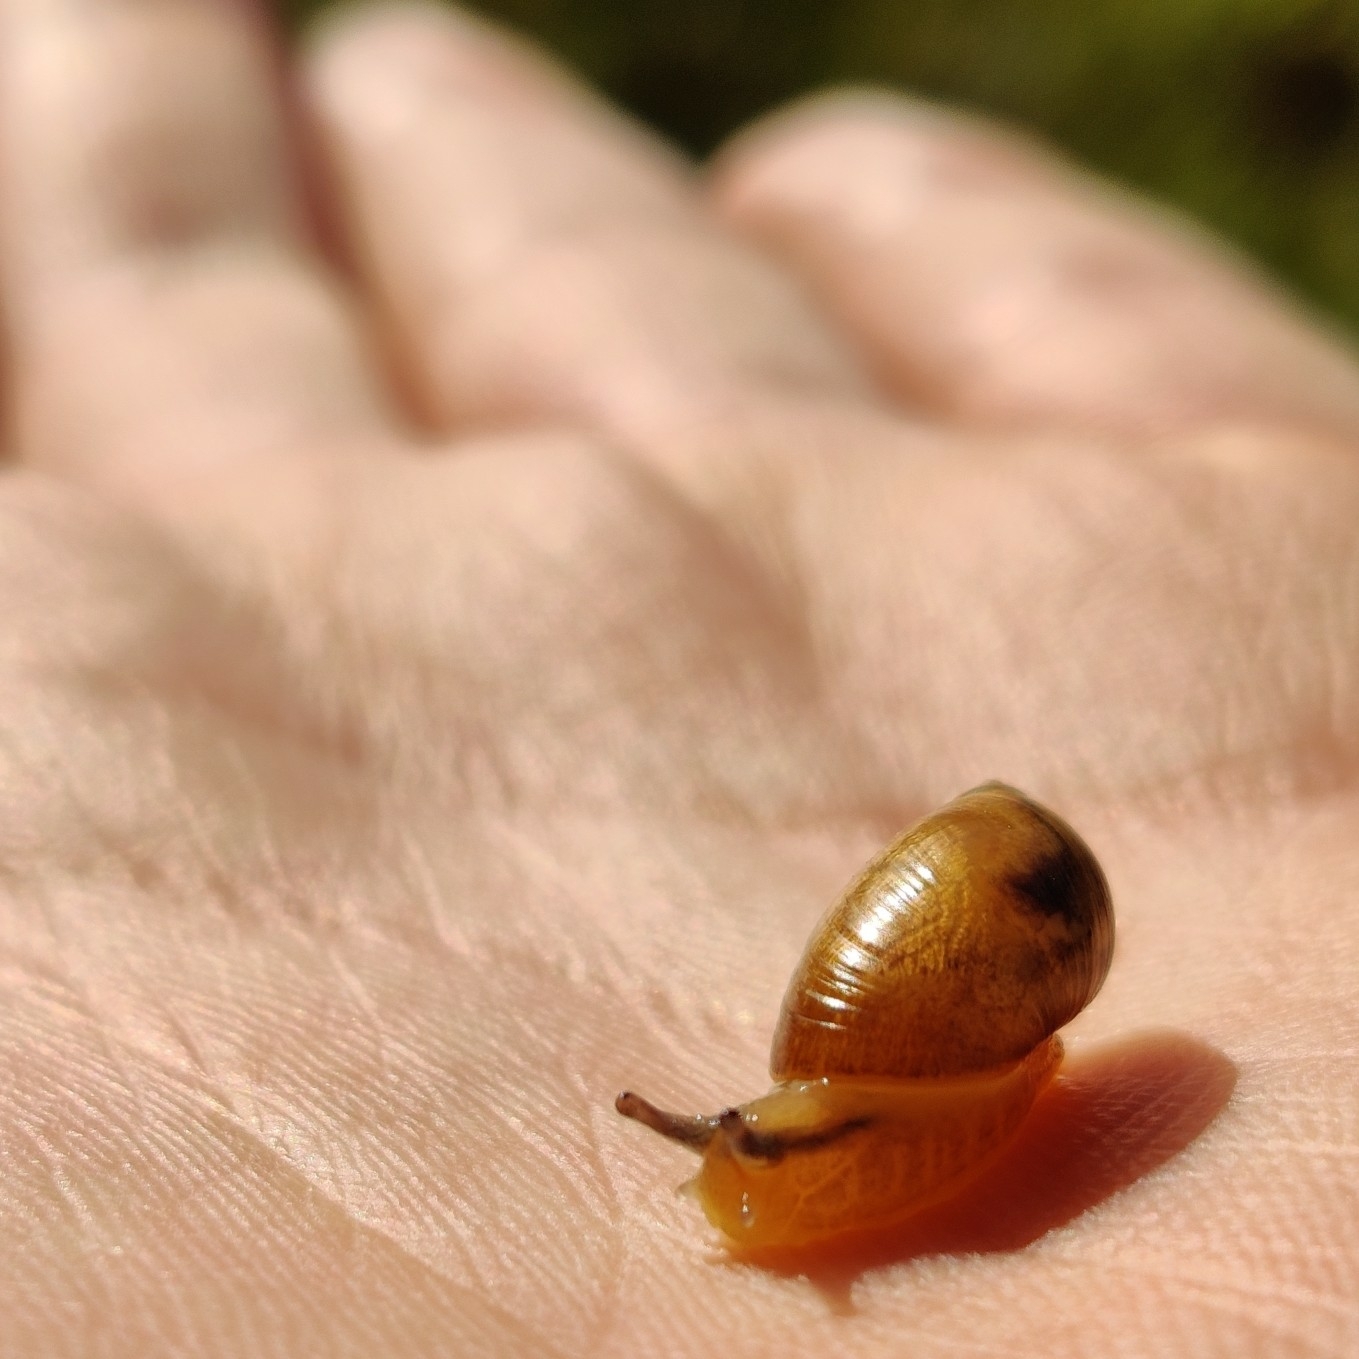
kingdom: Animalia
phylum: Mollusca
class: Gastropoda
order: Stylommatophora
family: Succineidae
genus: Succinea
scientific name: Succinea putris
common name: European ambersnail
